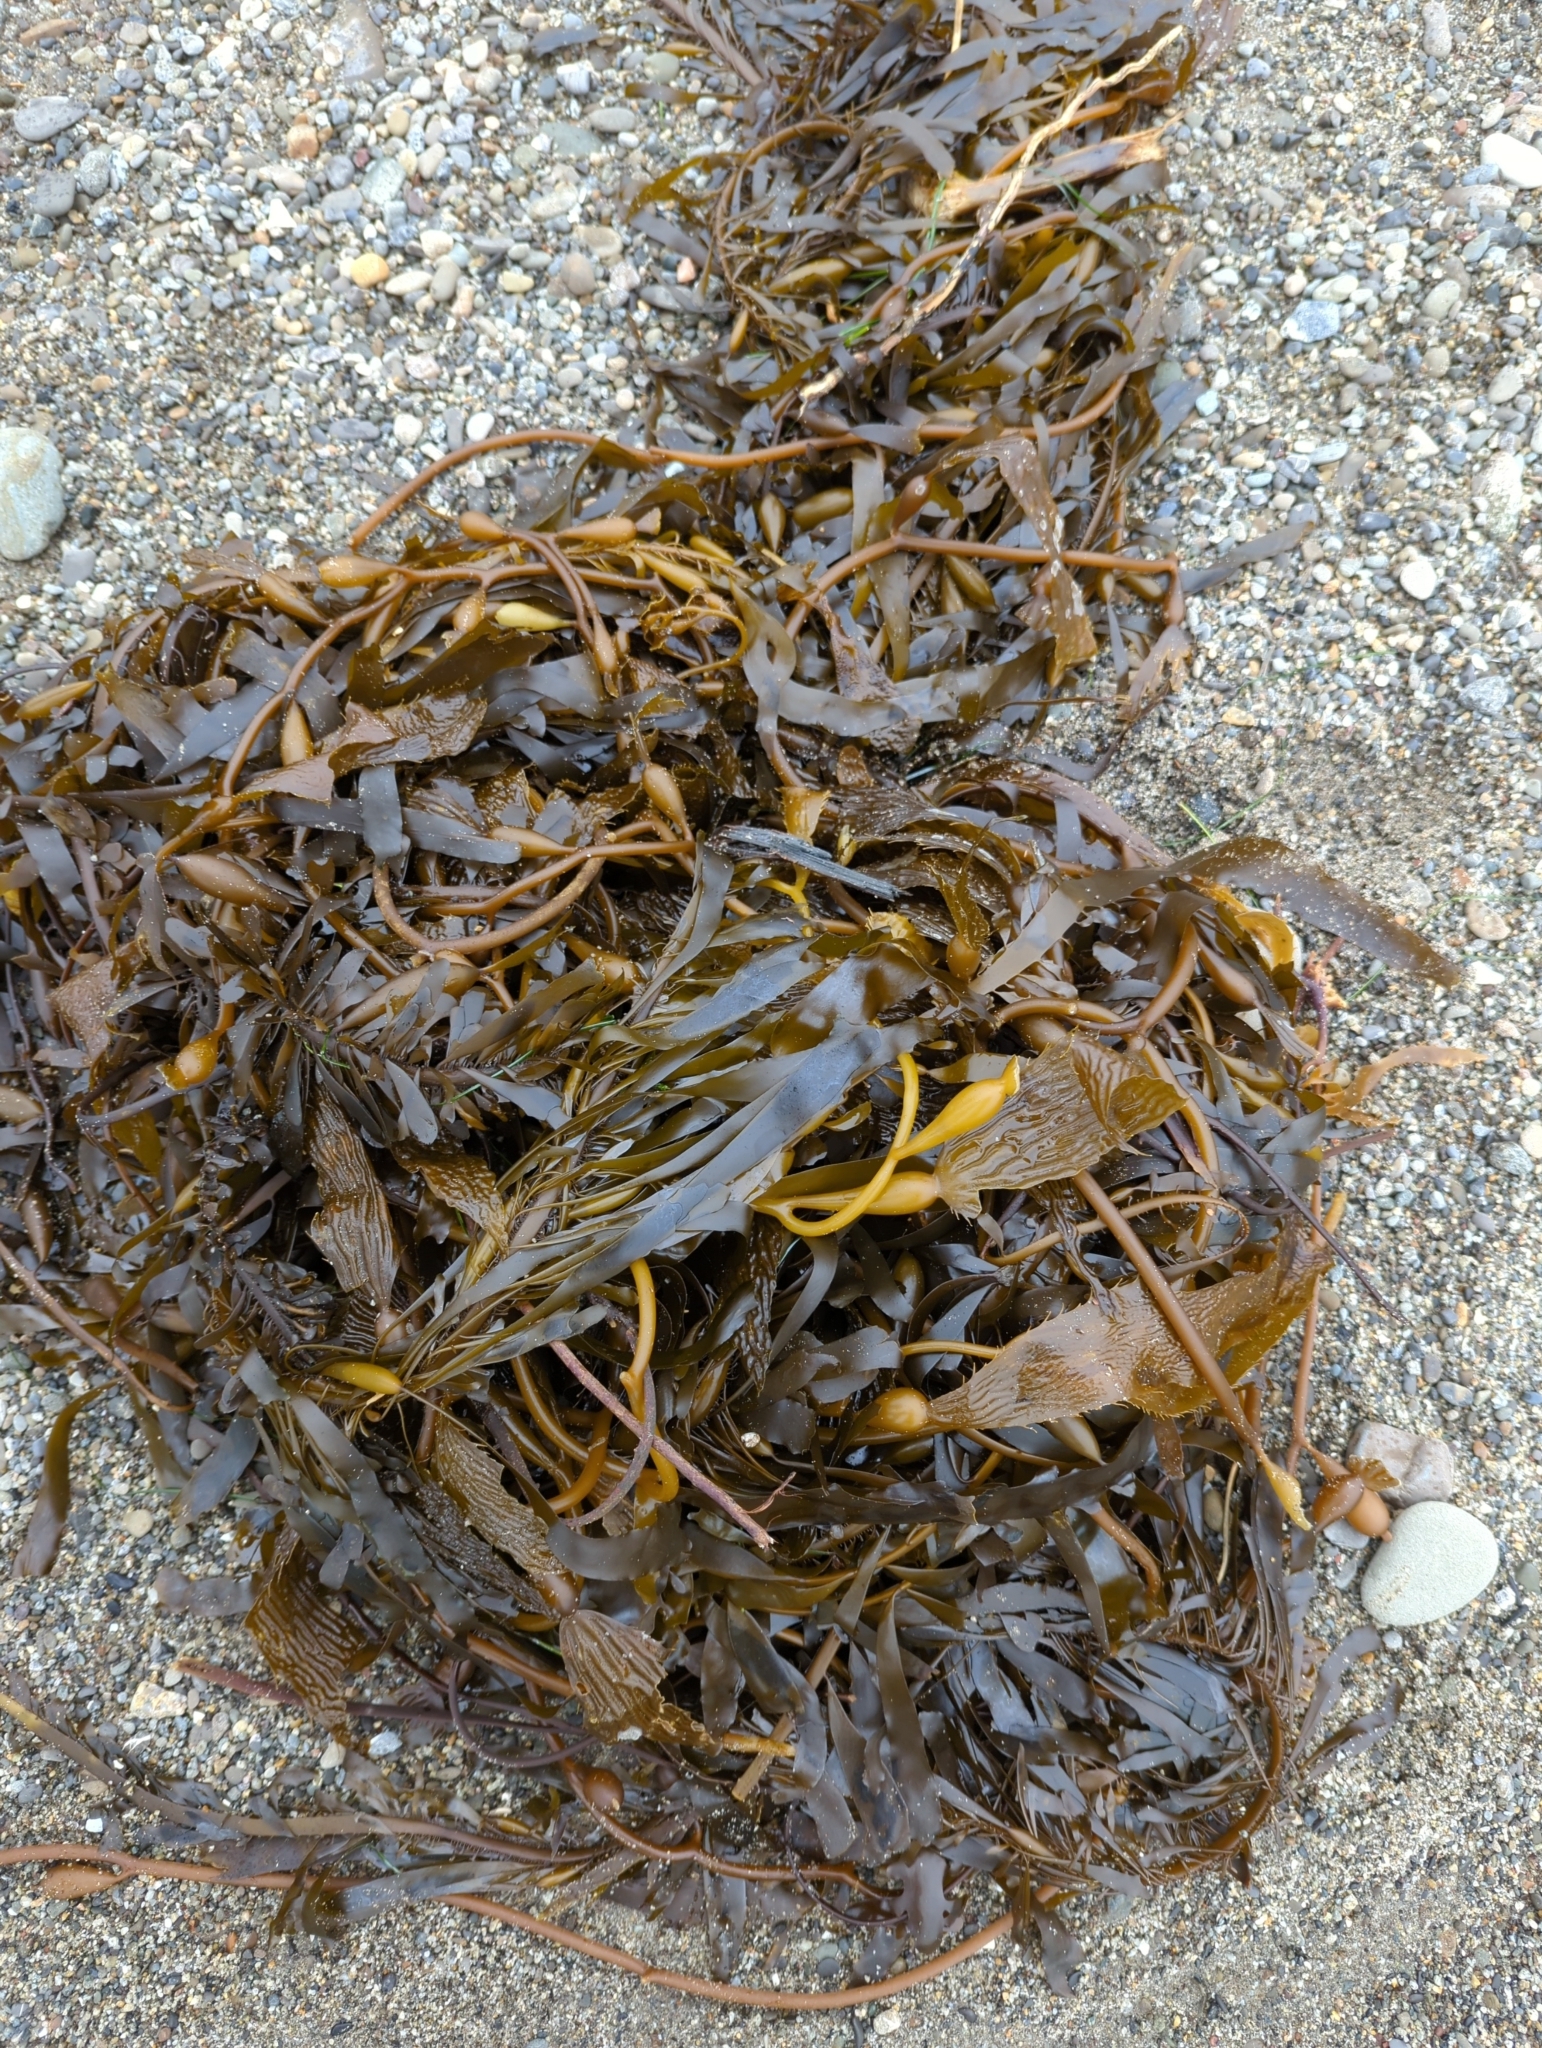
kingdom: Chromista
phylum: Ochrophyta
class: Phaeophyceae
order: Laminariales
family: Laminariaceae
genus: Macrocystis
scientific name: Macrocystis pyrifera
